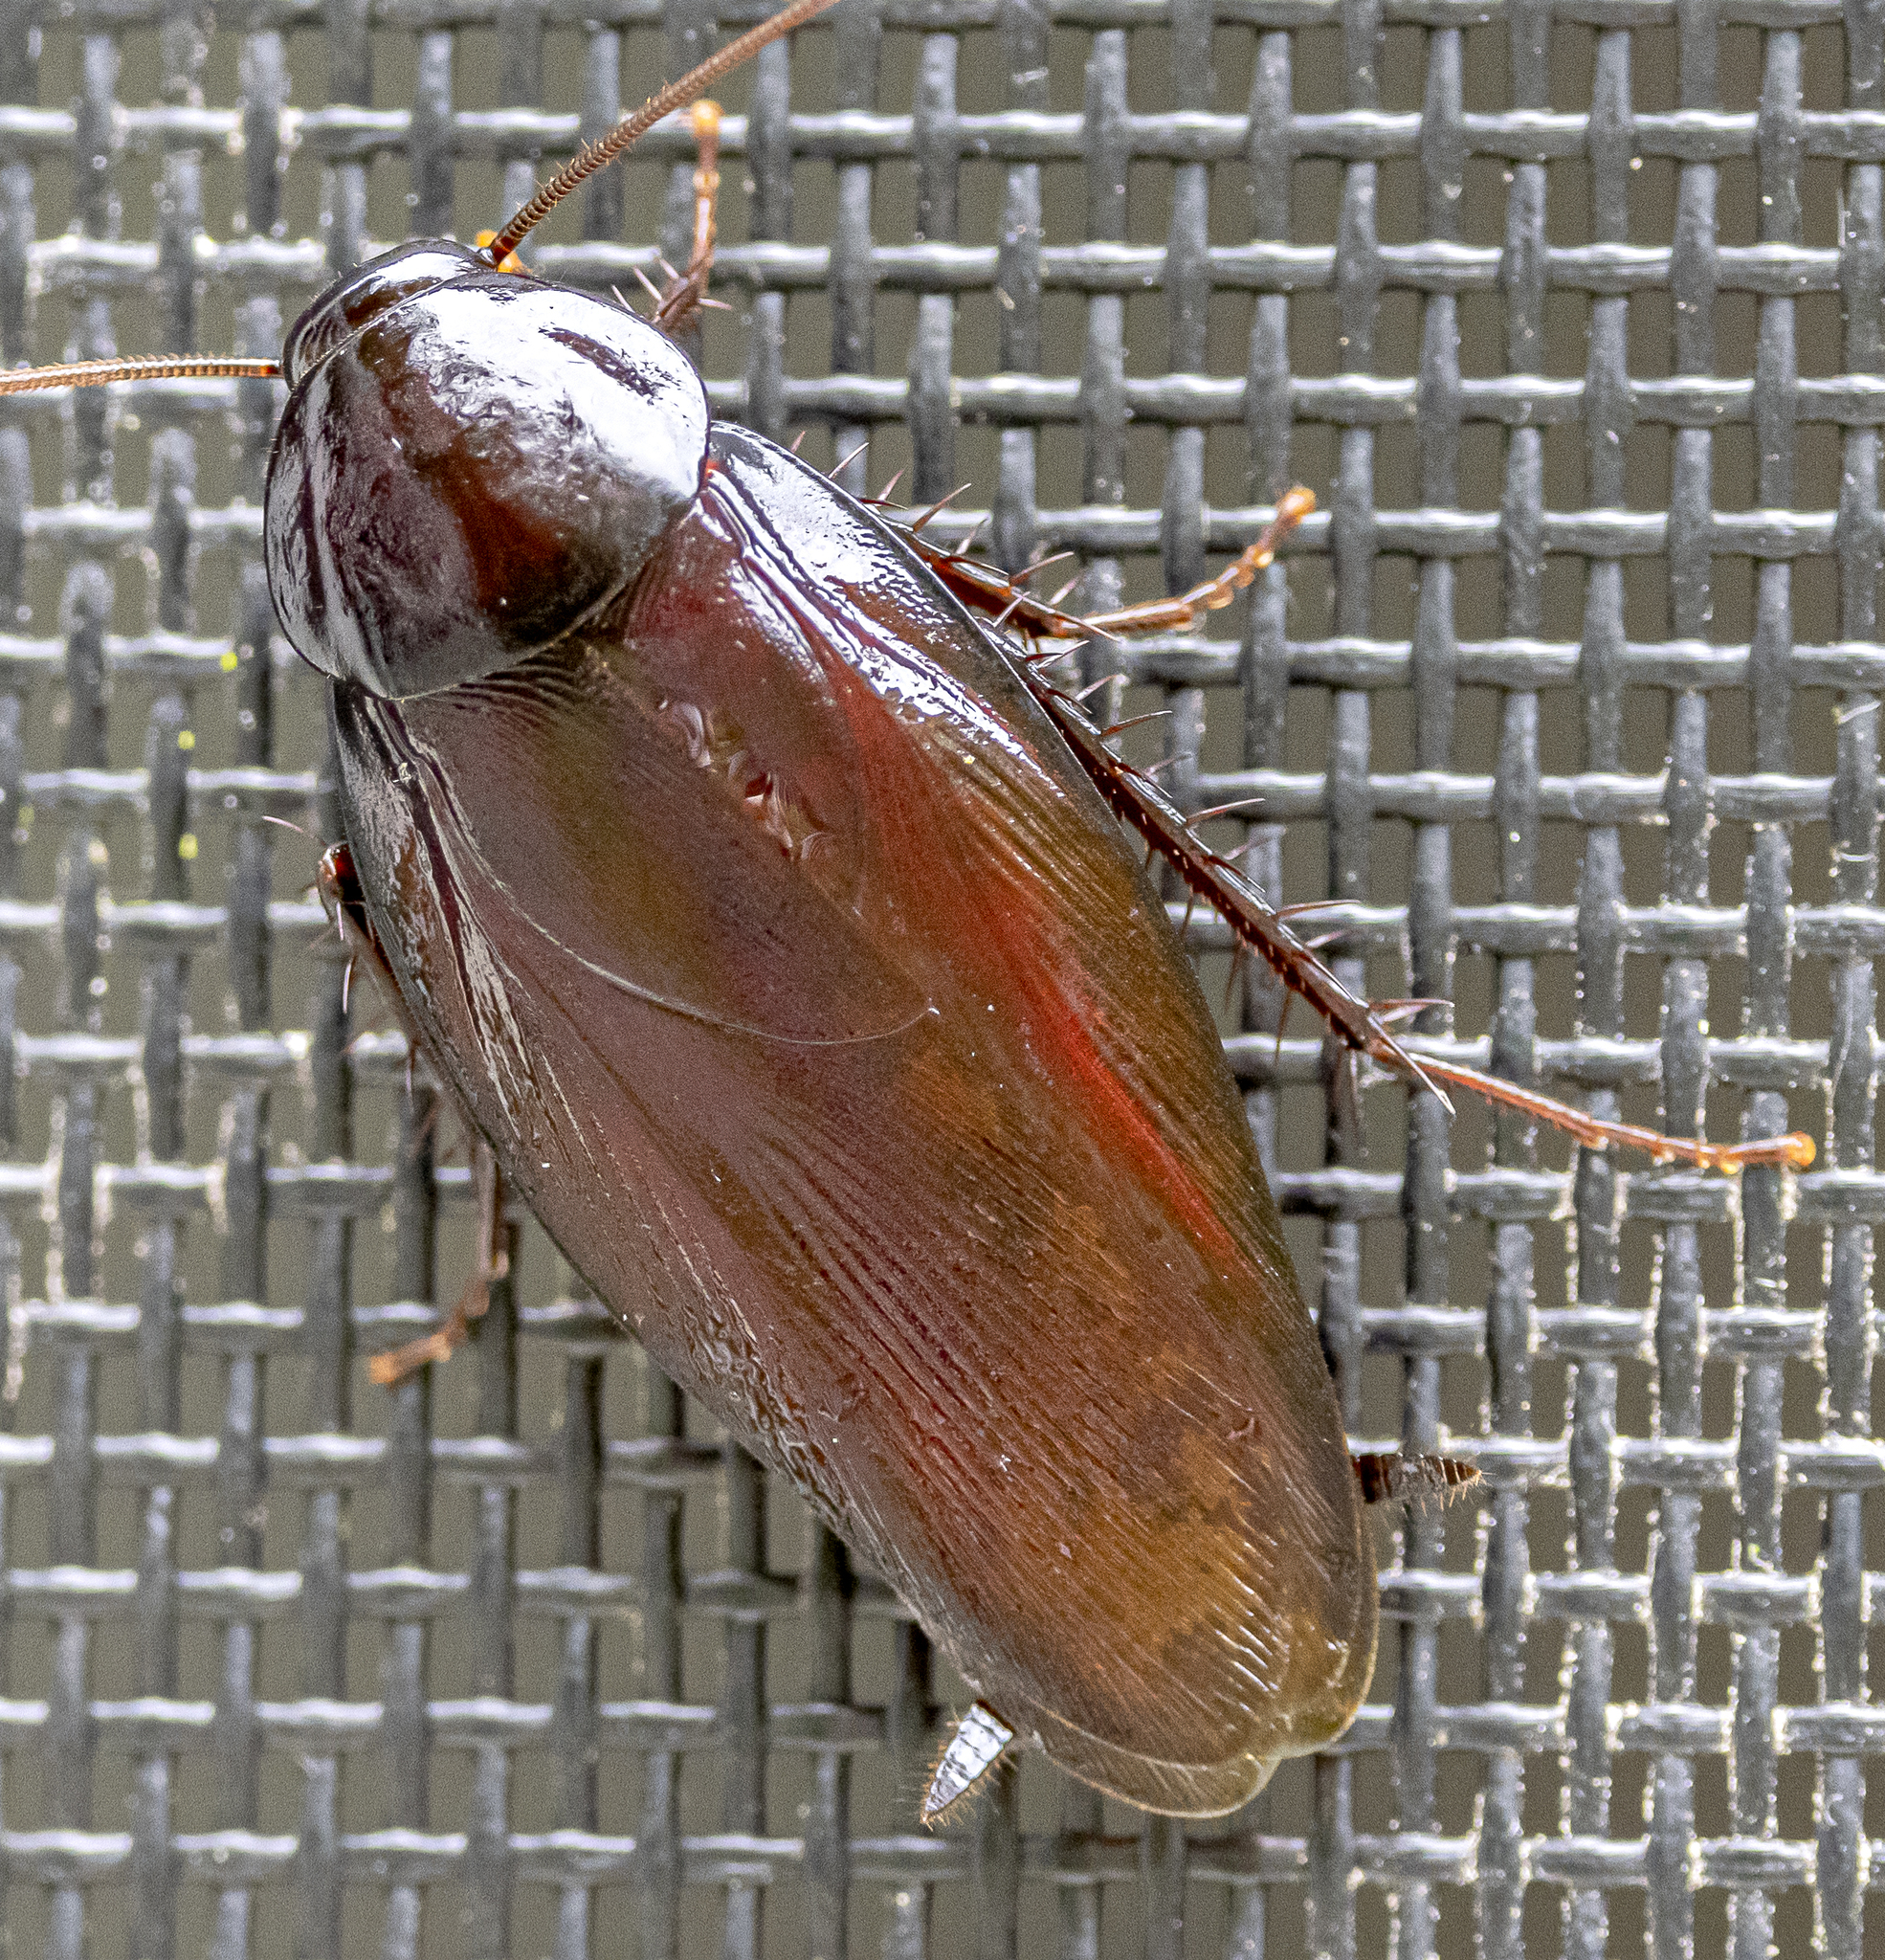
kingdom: Animalia
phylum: Arthropoda
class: Insecta
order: Blattodea
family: Blattidae
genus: Periplaneta
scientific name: Periplaneta fuliginosa
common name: Smokeybrown cockroad
